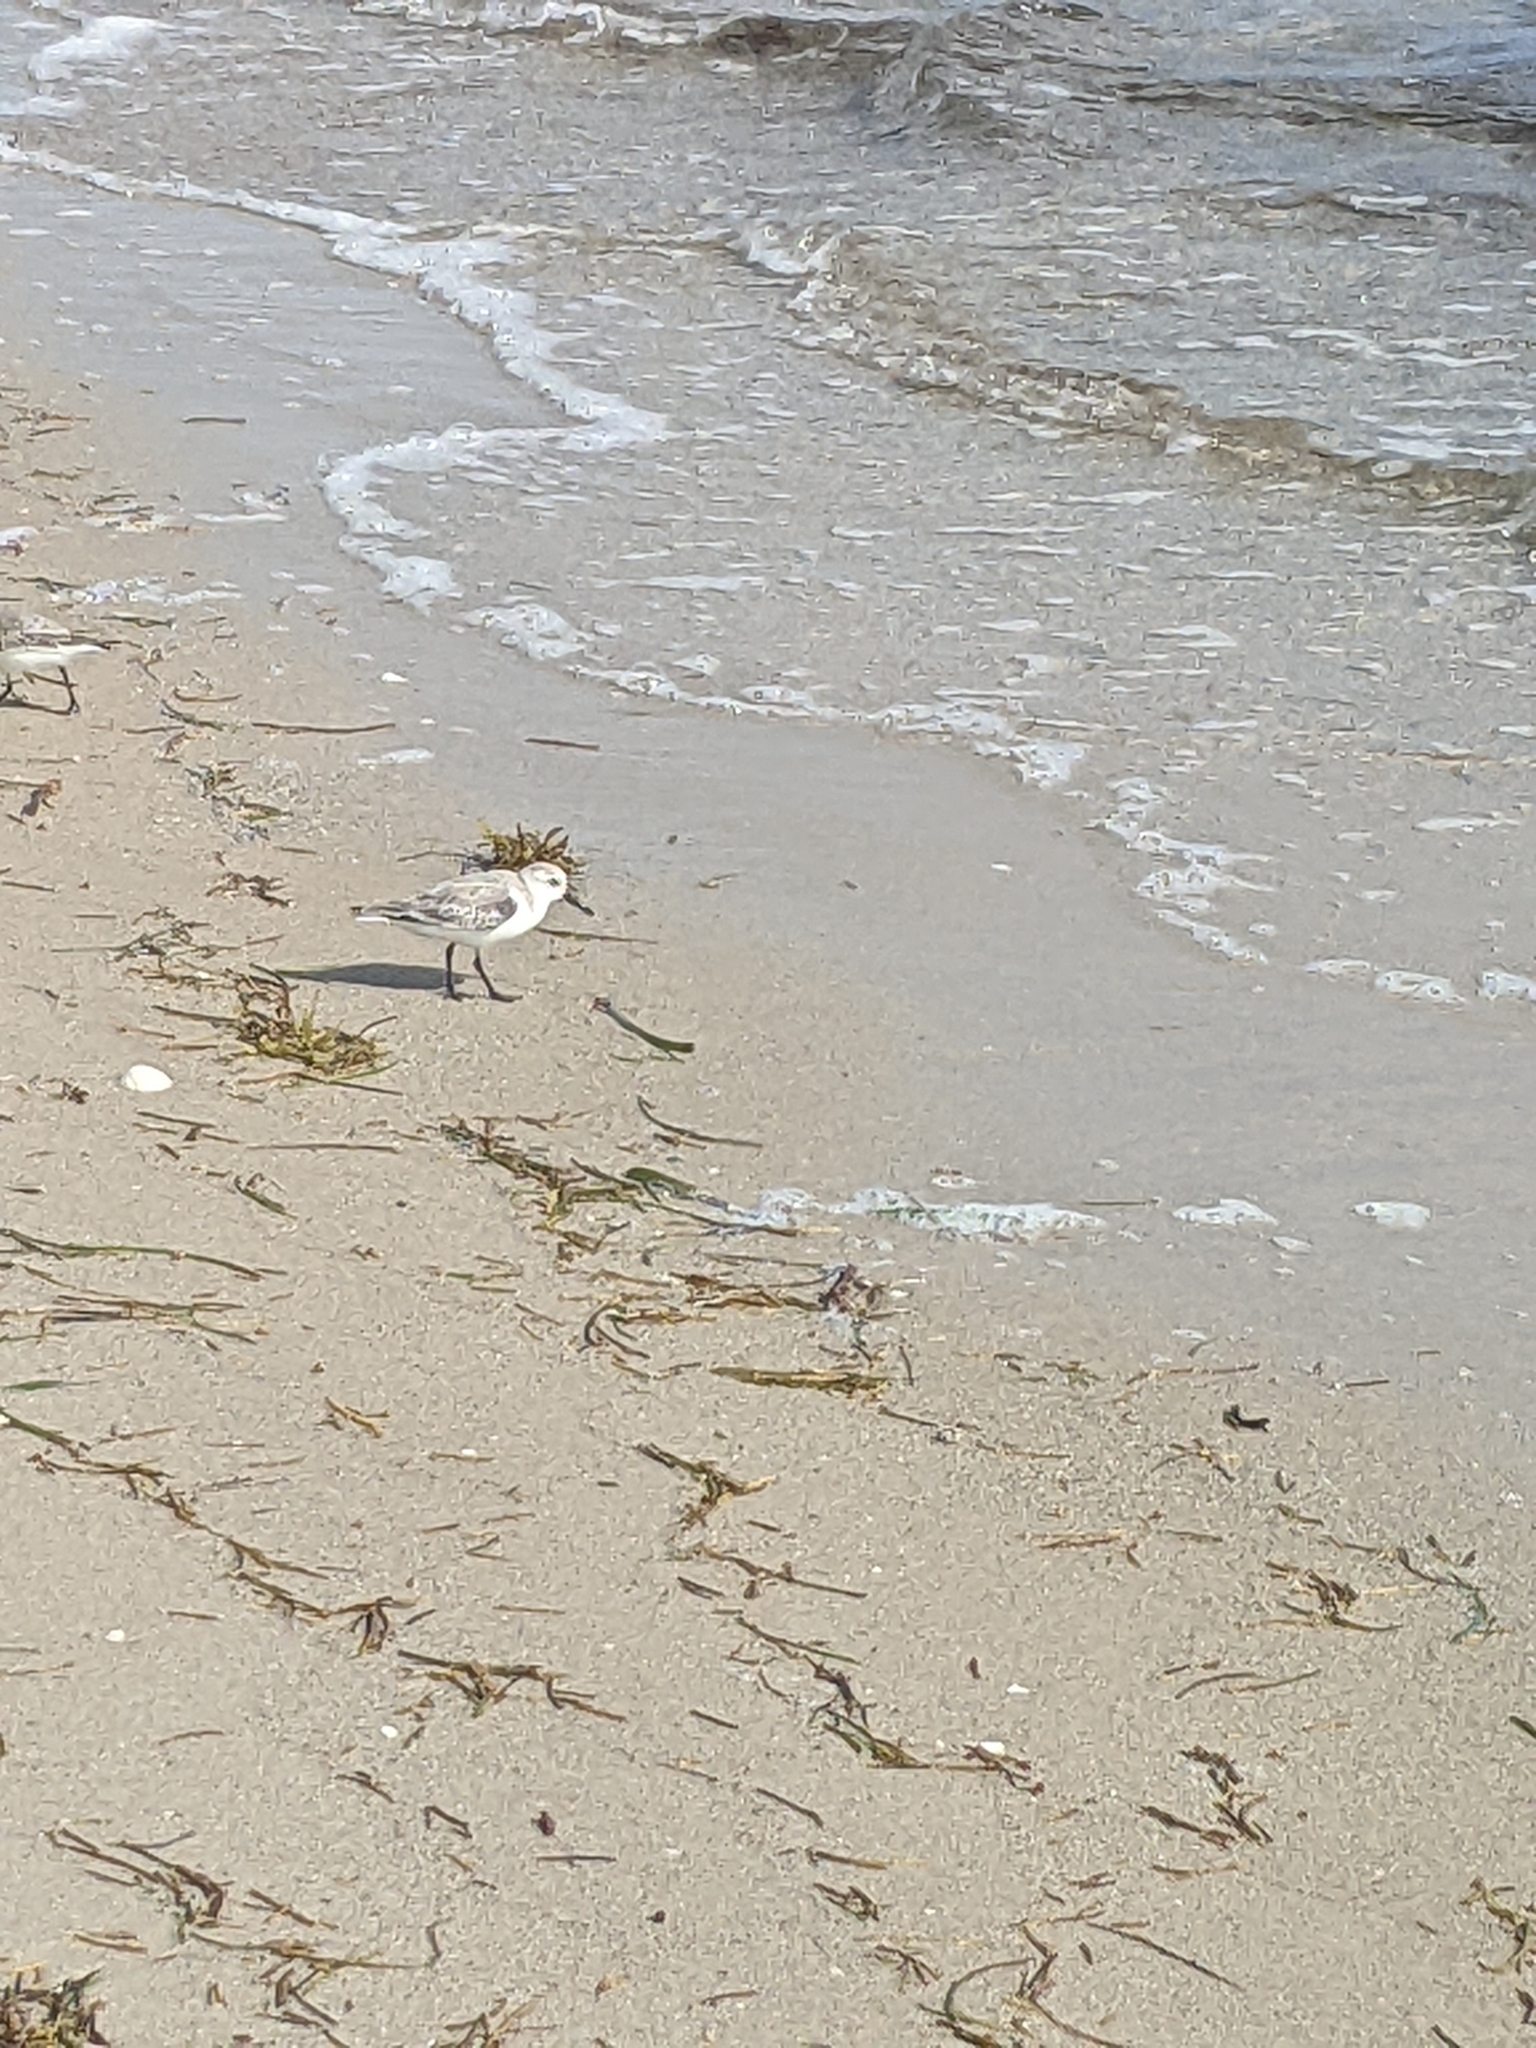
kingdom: Animalia
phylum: Chordata
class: Aves
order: Charadriiformes
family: Scolopacidae
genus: Calidris
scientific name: Calidris alba
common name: Sanderling
